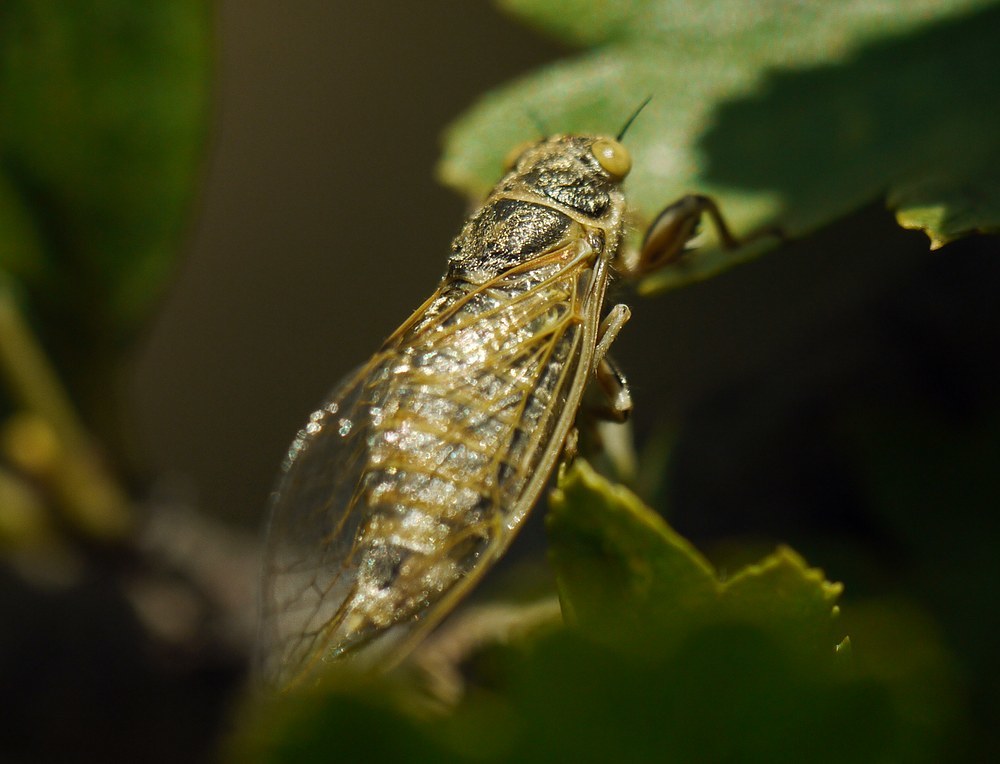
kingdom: Animalia
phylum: Arthropoda
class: Insecta
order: Hemiptera
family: Cicadidae
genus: Oligoglena
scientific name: Oligoglena tibialis
